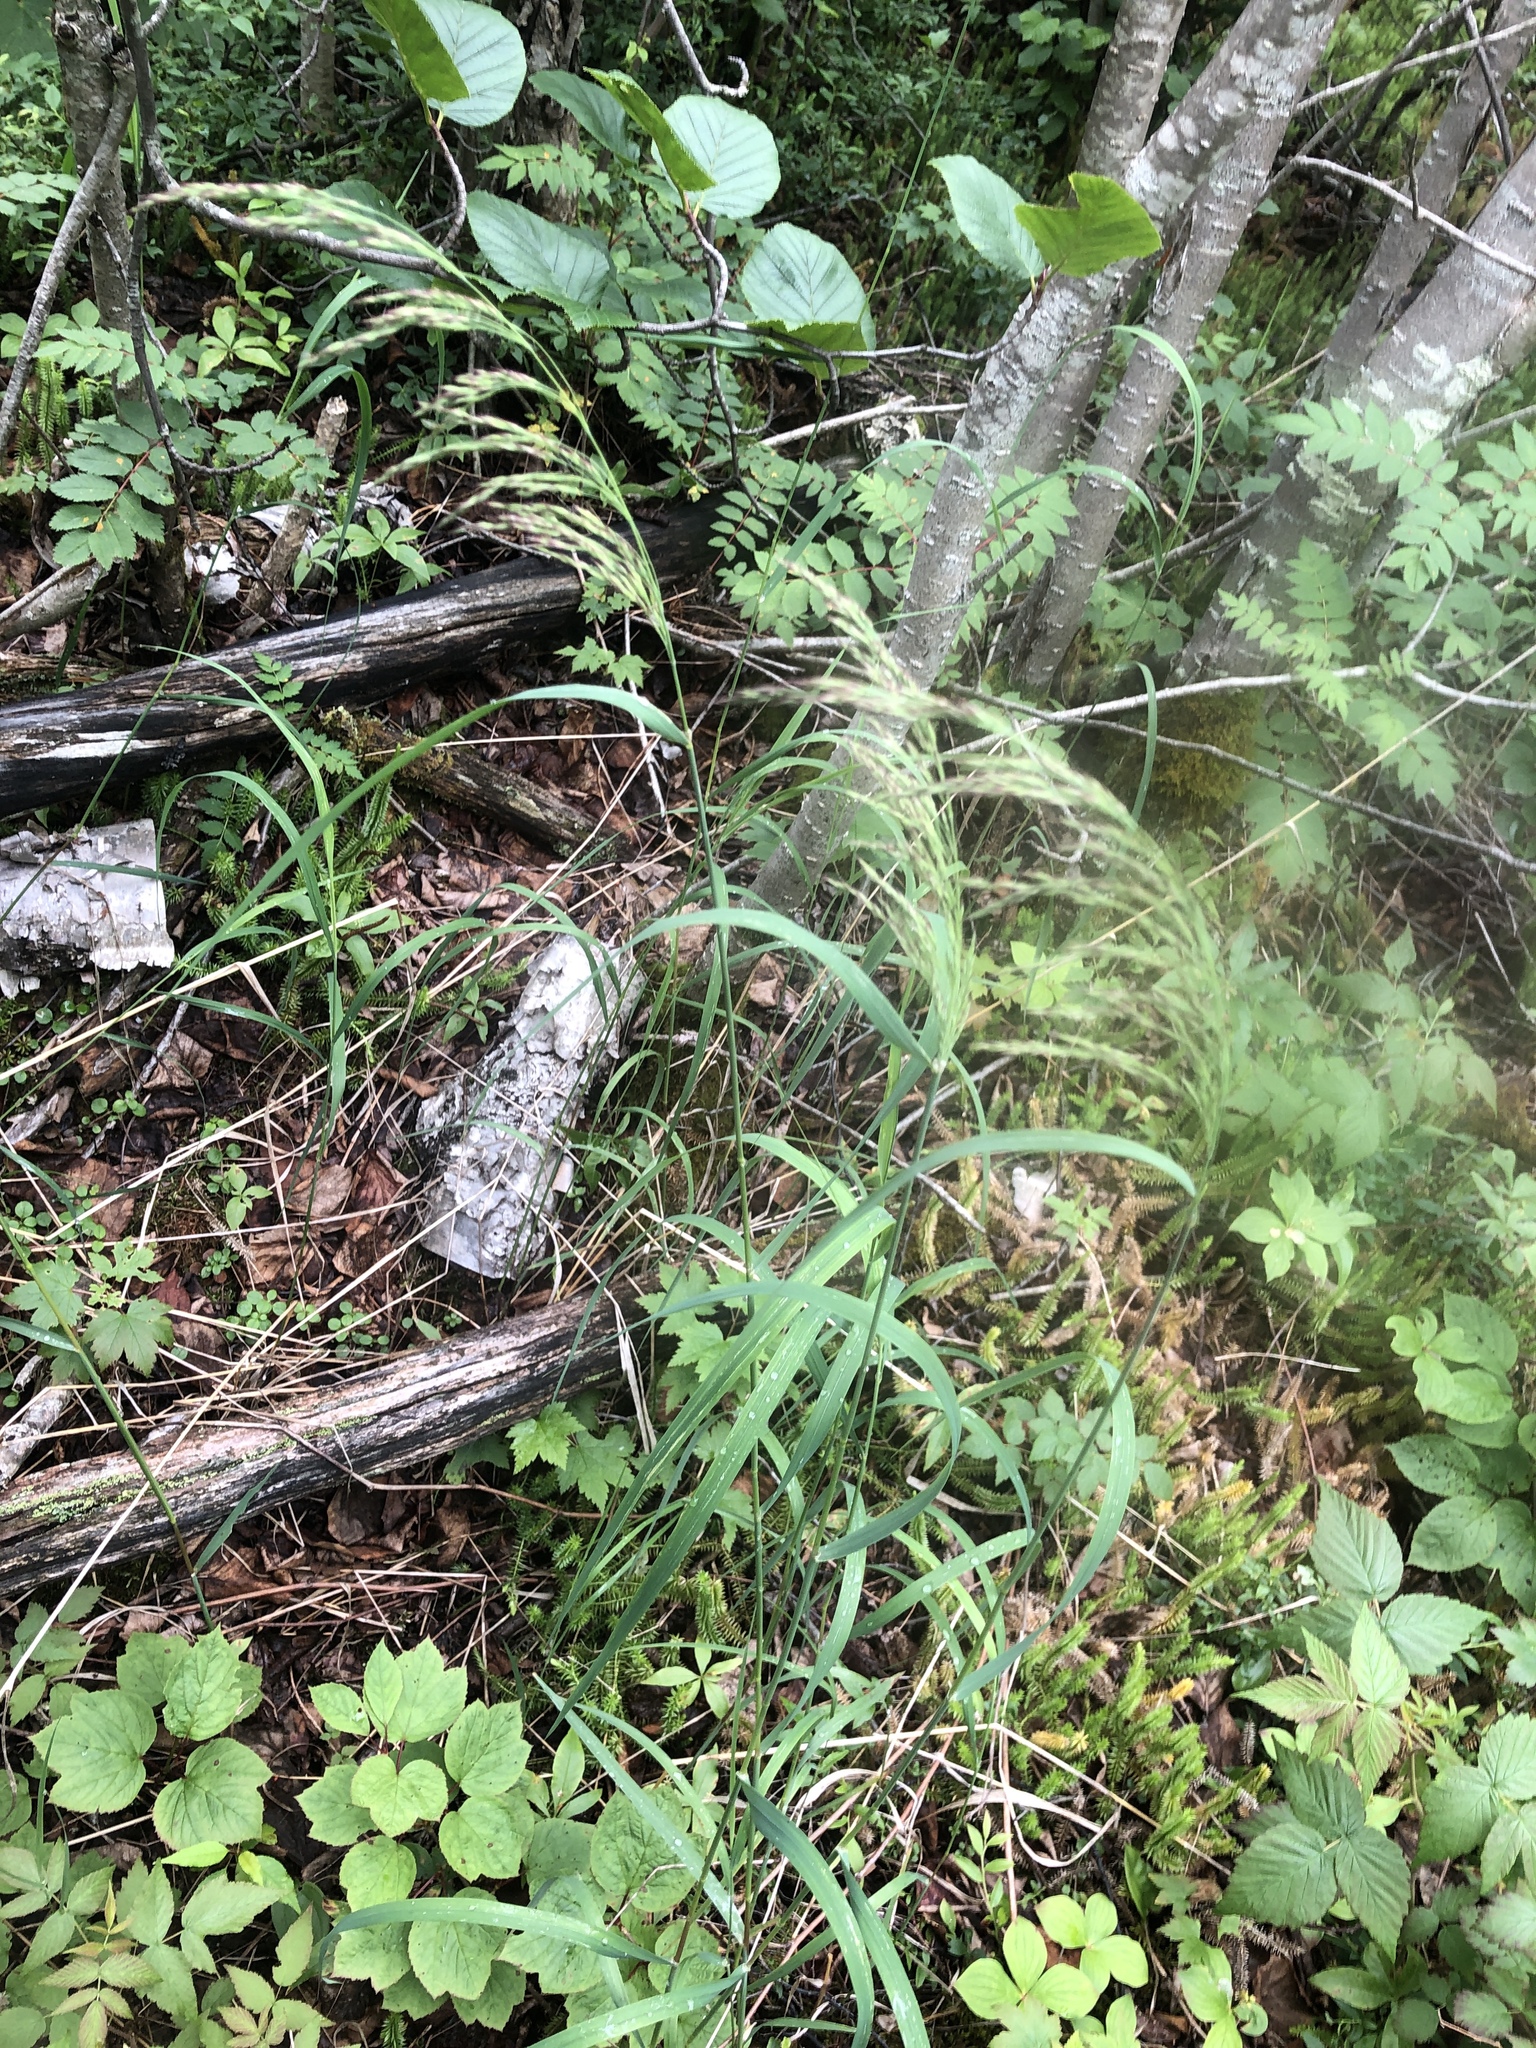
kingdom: Plantae
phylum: Tracheophyta
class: Liliopsida
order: Poales
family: Poaceae
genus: Calamagrostis
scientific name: Calamagrostis canadensis
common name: Canada bluejoint
